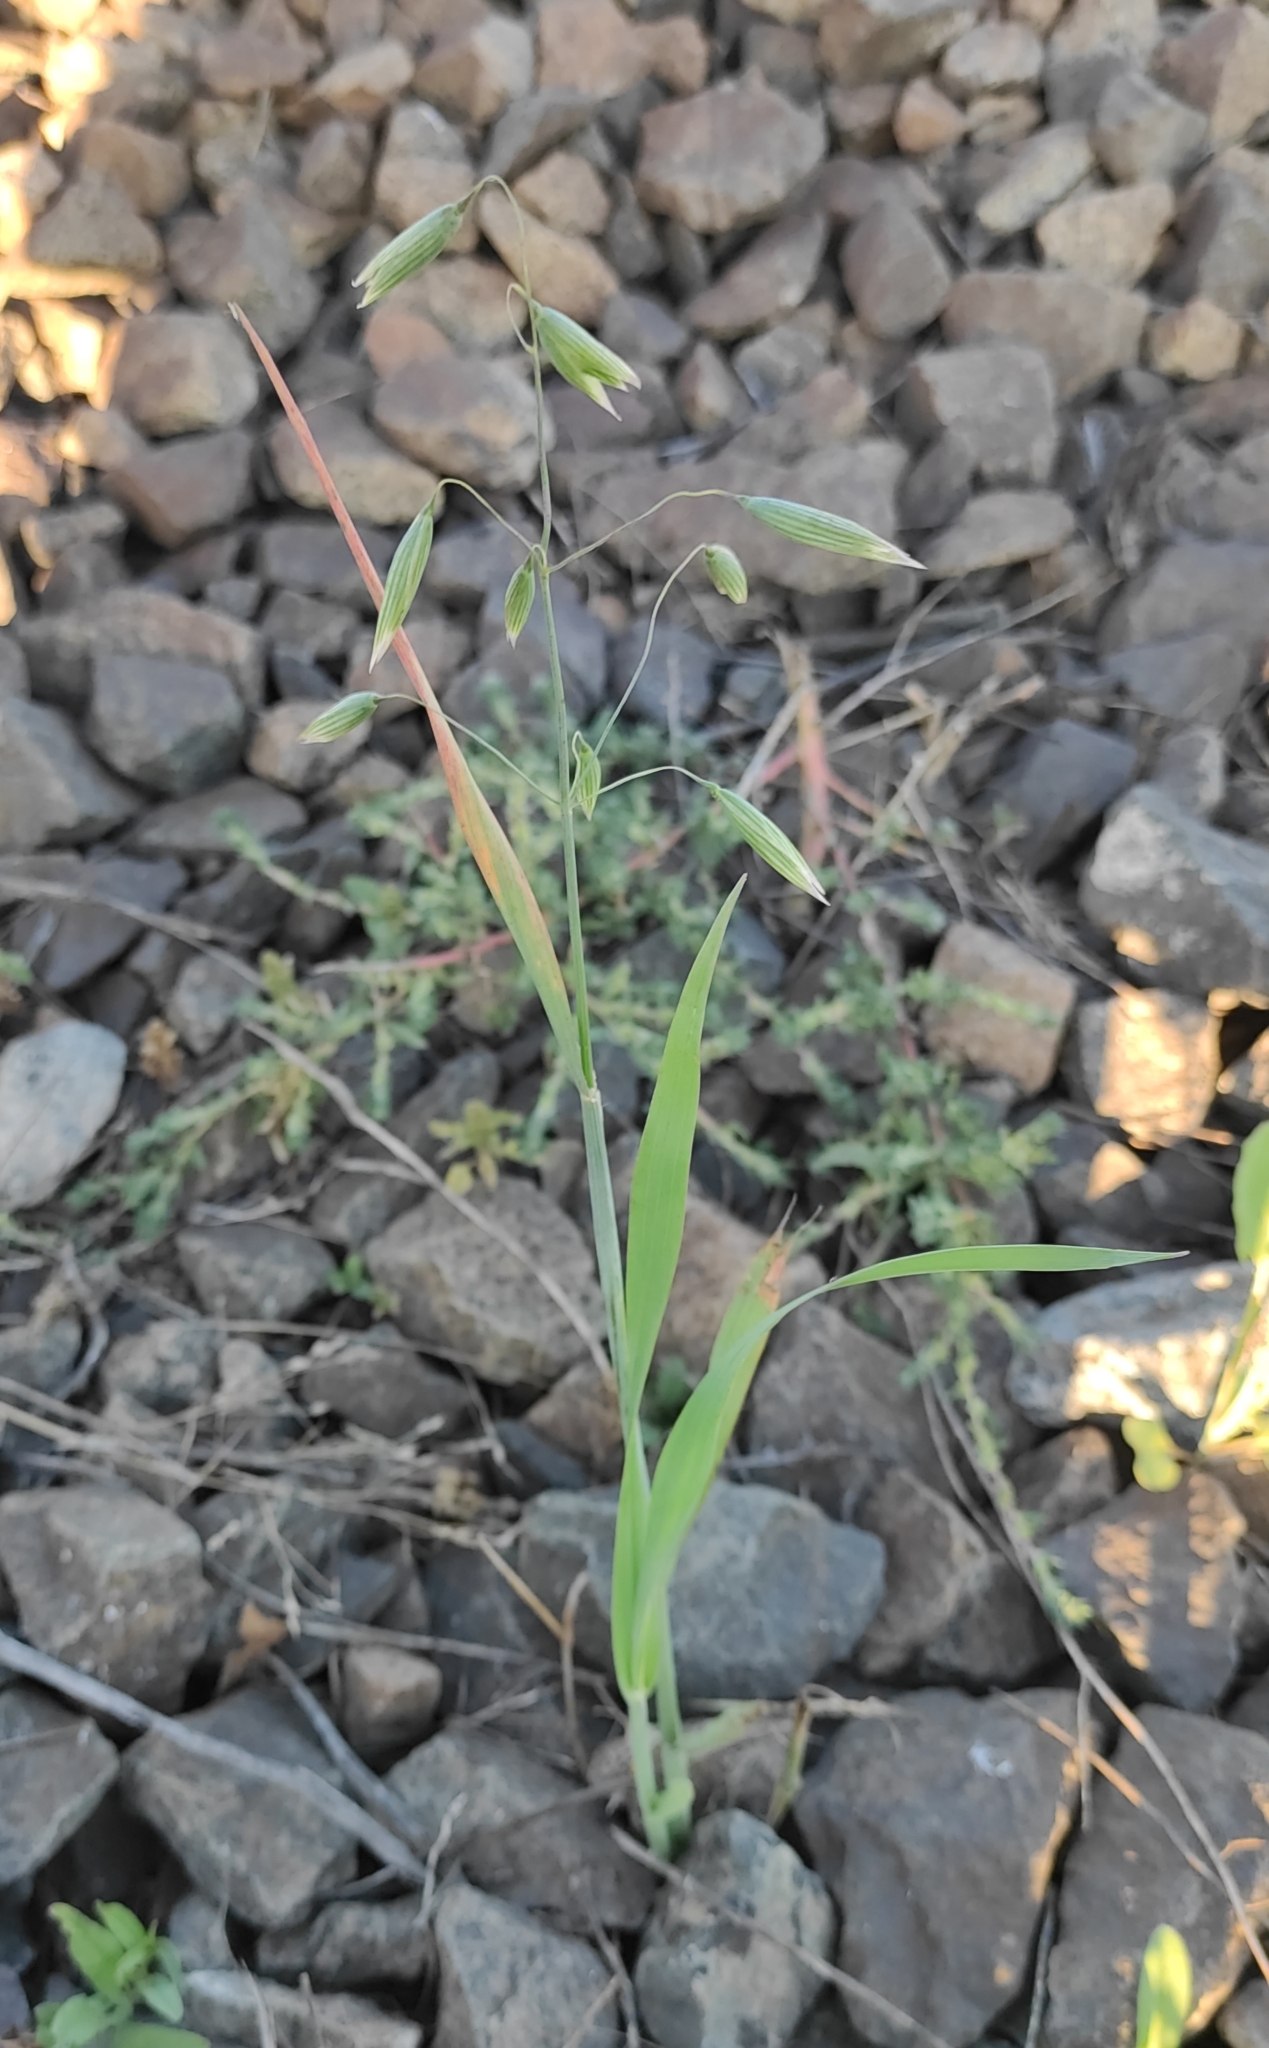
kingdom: Plantae
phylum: Tracheophyta
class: Liliopsida
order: Poales
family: Poaceae
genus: Avena
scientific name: Avena sativa
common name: Oat
